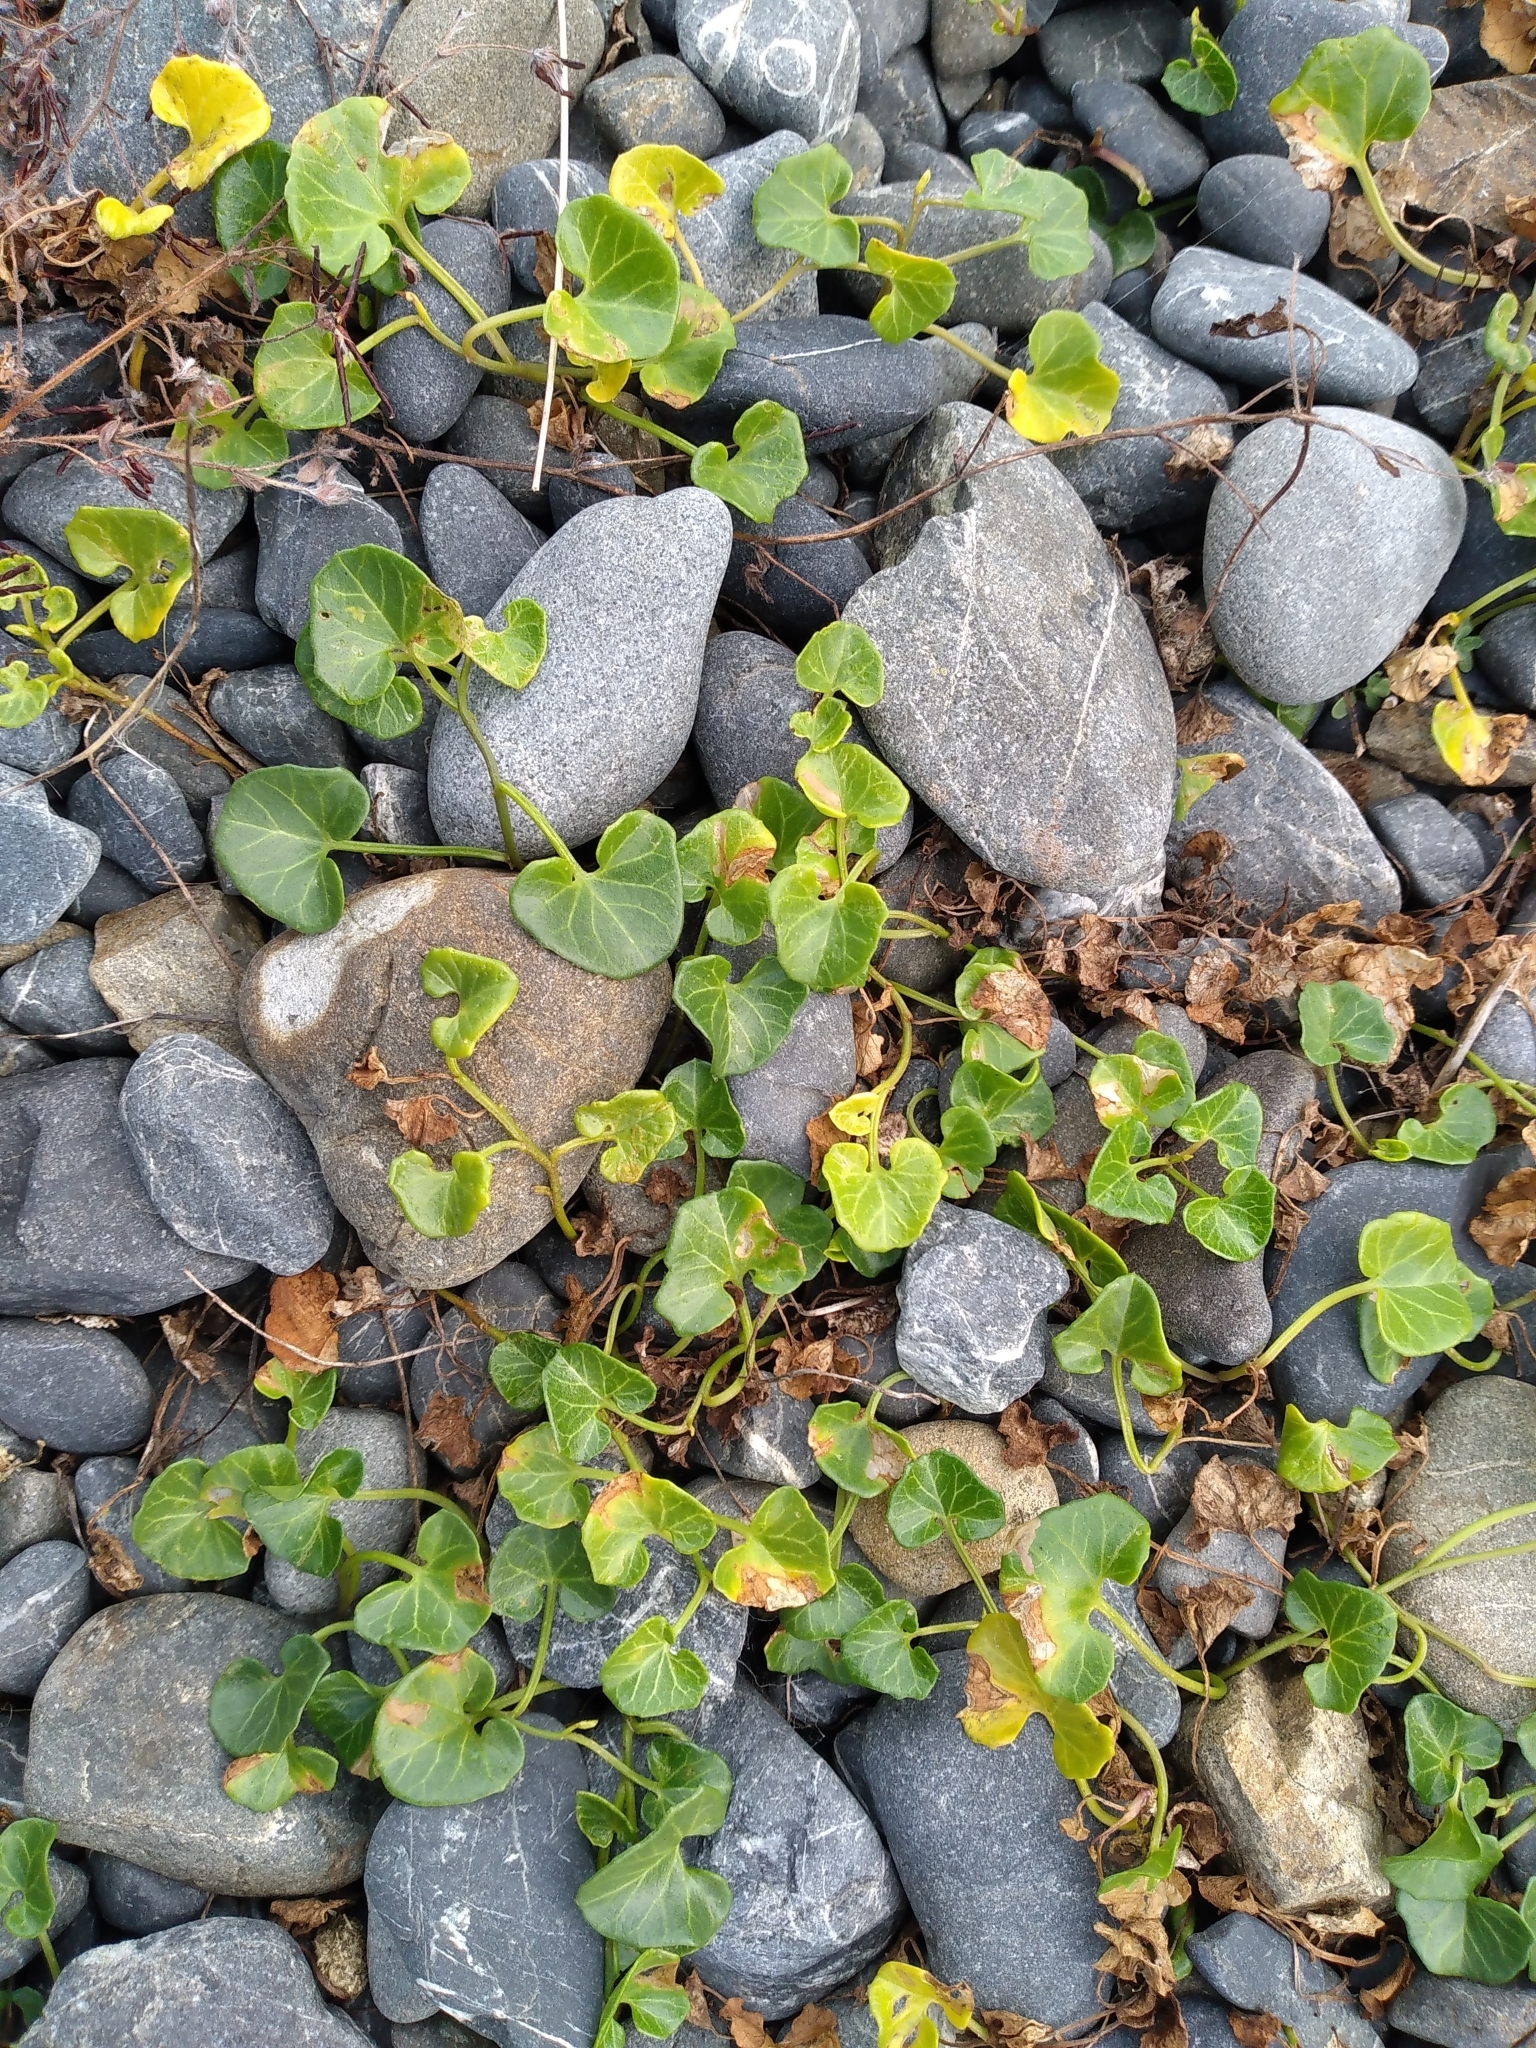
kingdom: Plantae
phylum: Tracheophyta
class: Magnoliopsida
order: Solanales
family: Convolvulaceae
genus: Calystegia
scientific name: Calystegia soldanella
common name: Sea bindweed
